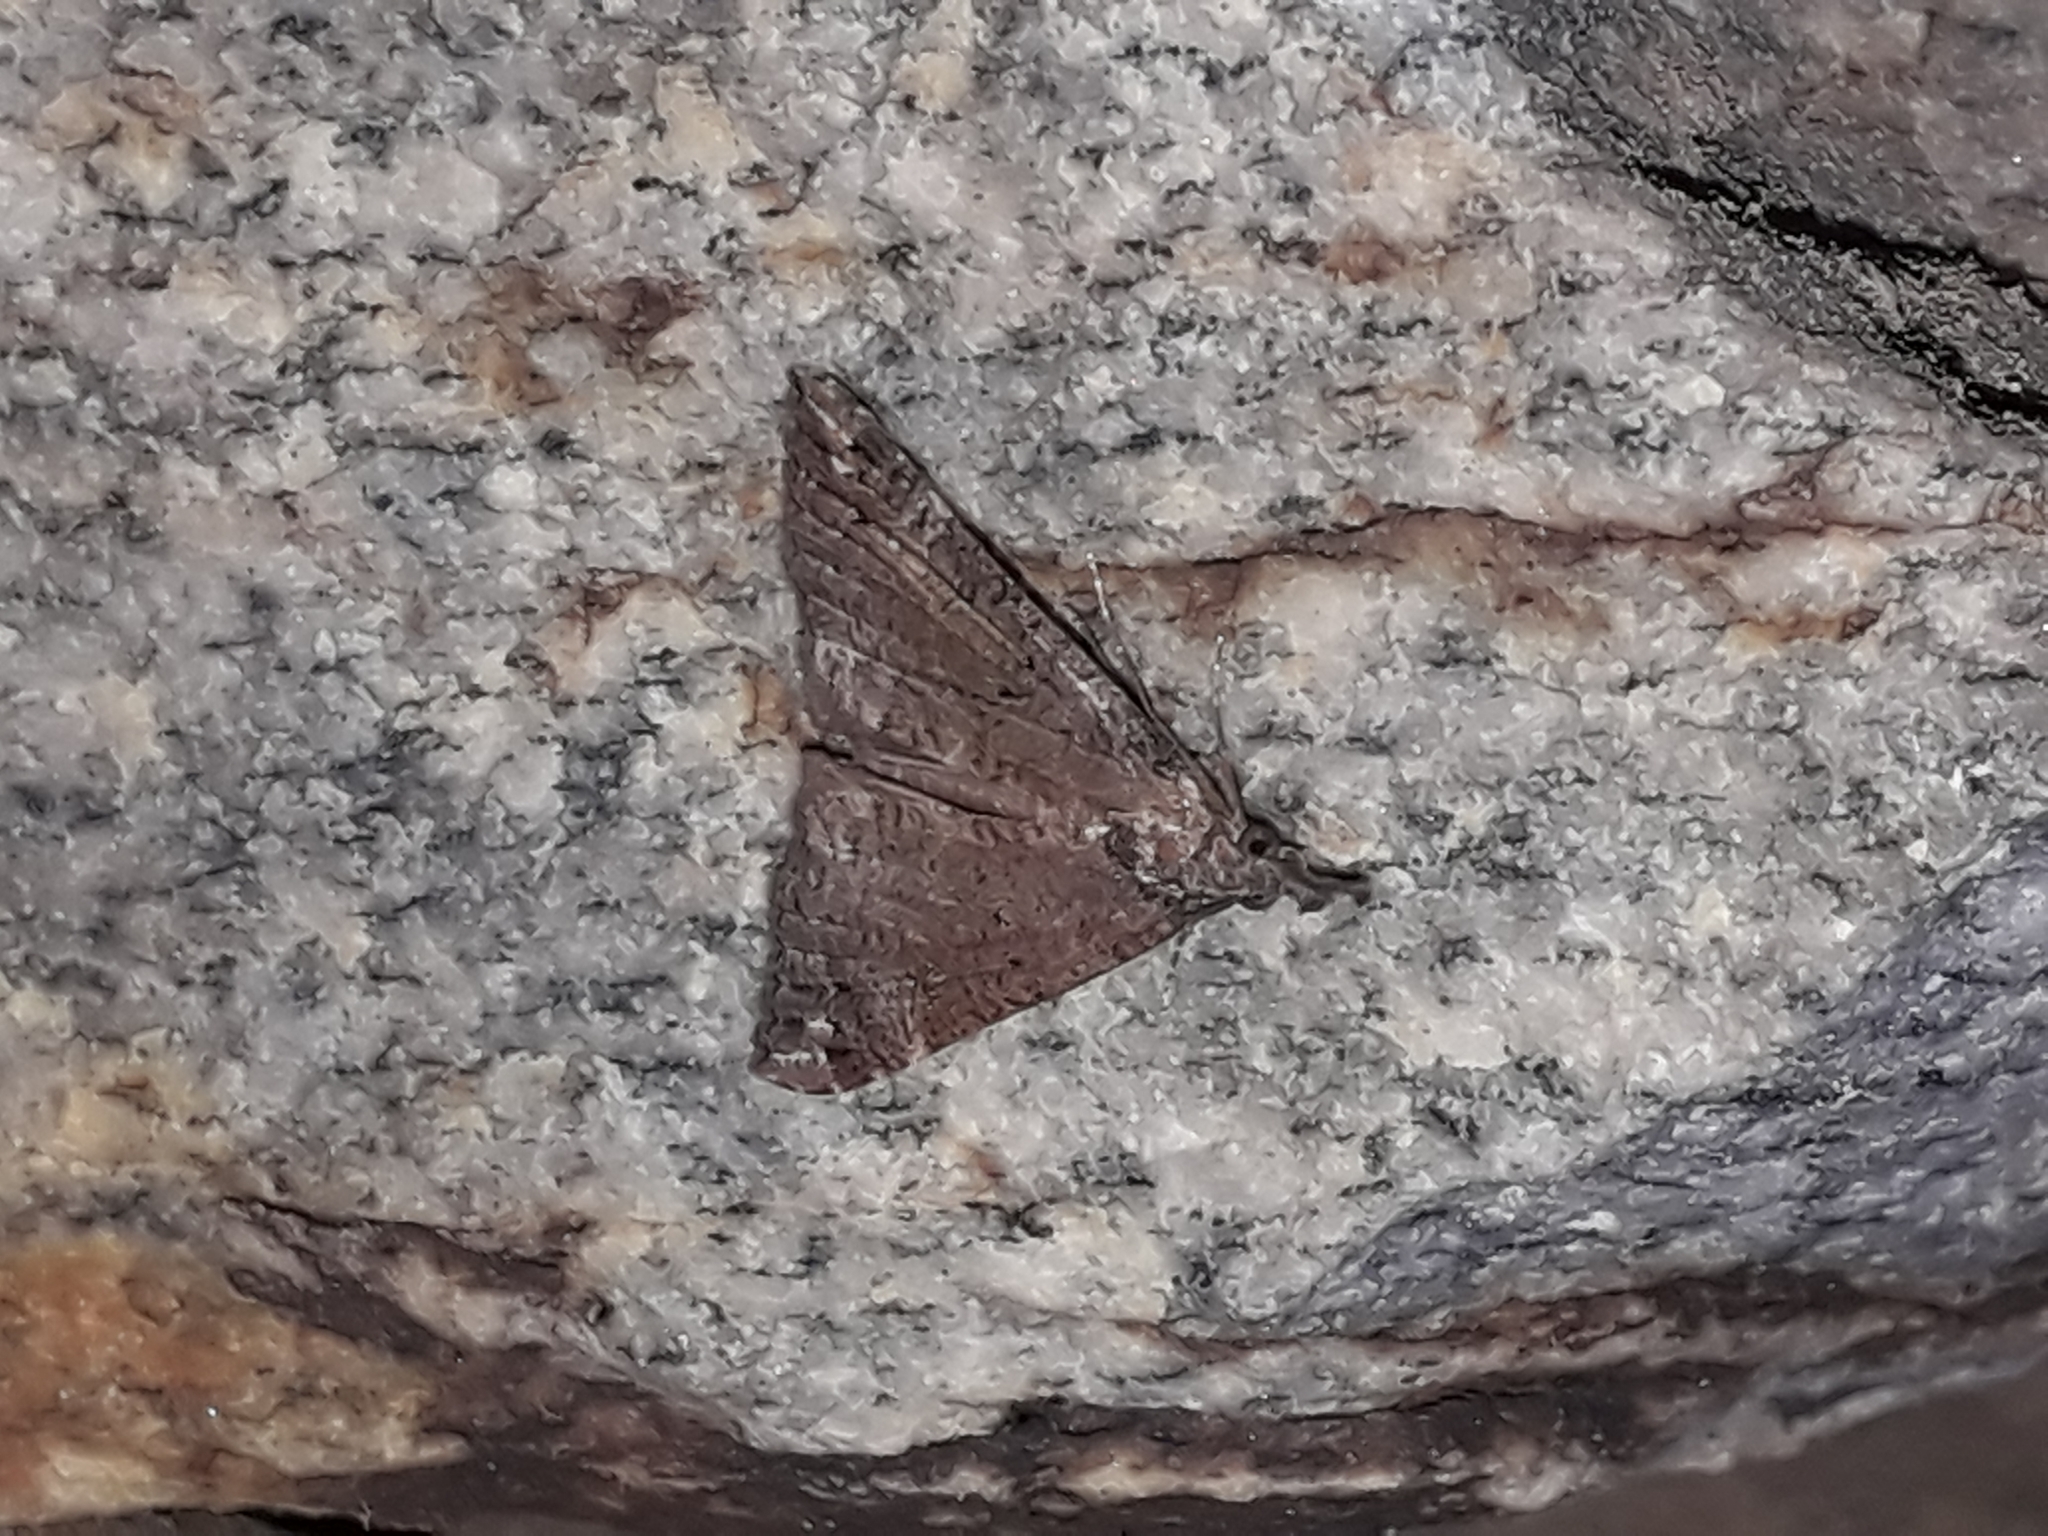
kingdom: Animalia
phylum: Arthropoda
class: Insecta
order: Lepidoptera
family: Erebidae
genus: Hypena
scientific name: Hypena obsitalis
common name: Bloxworth snout
